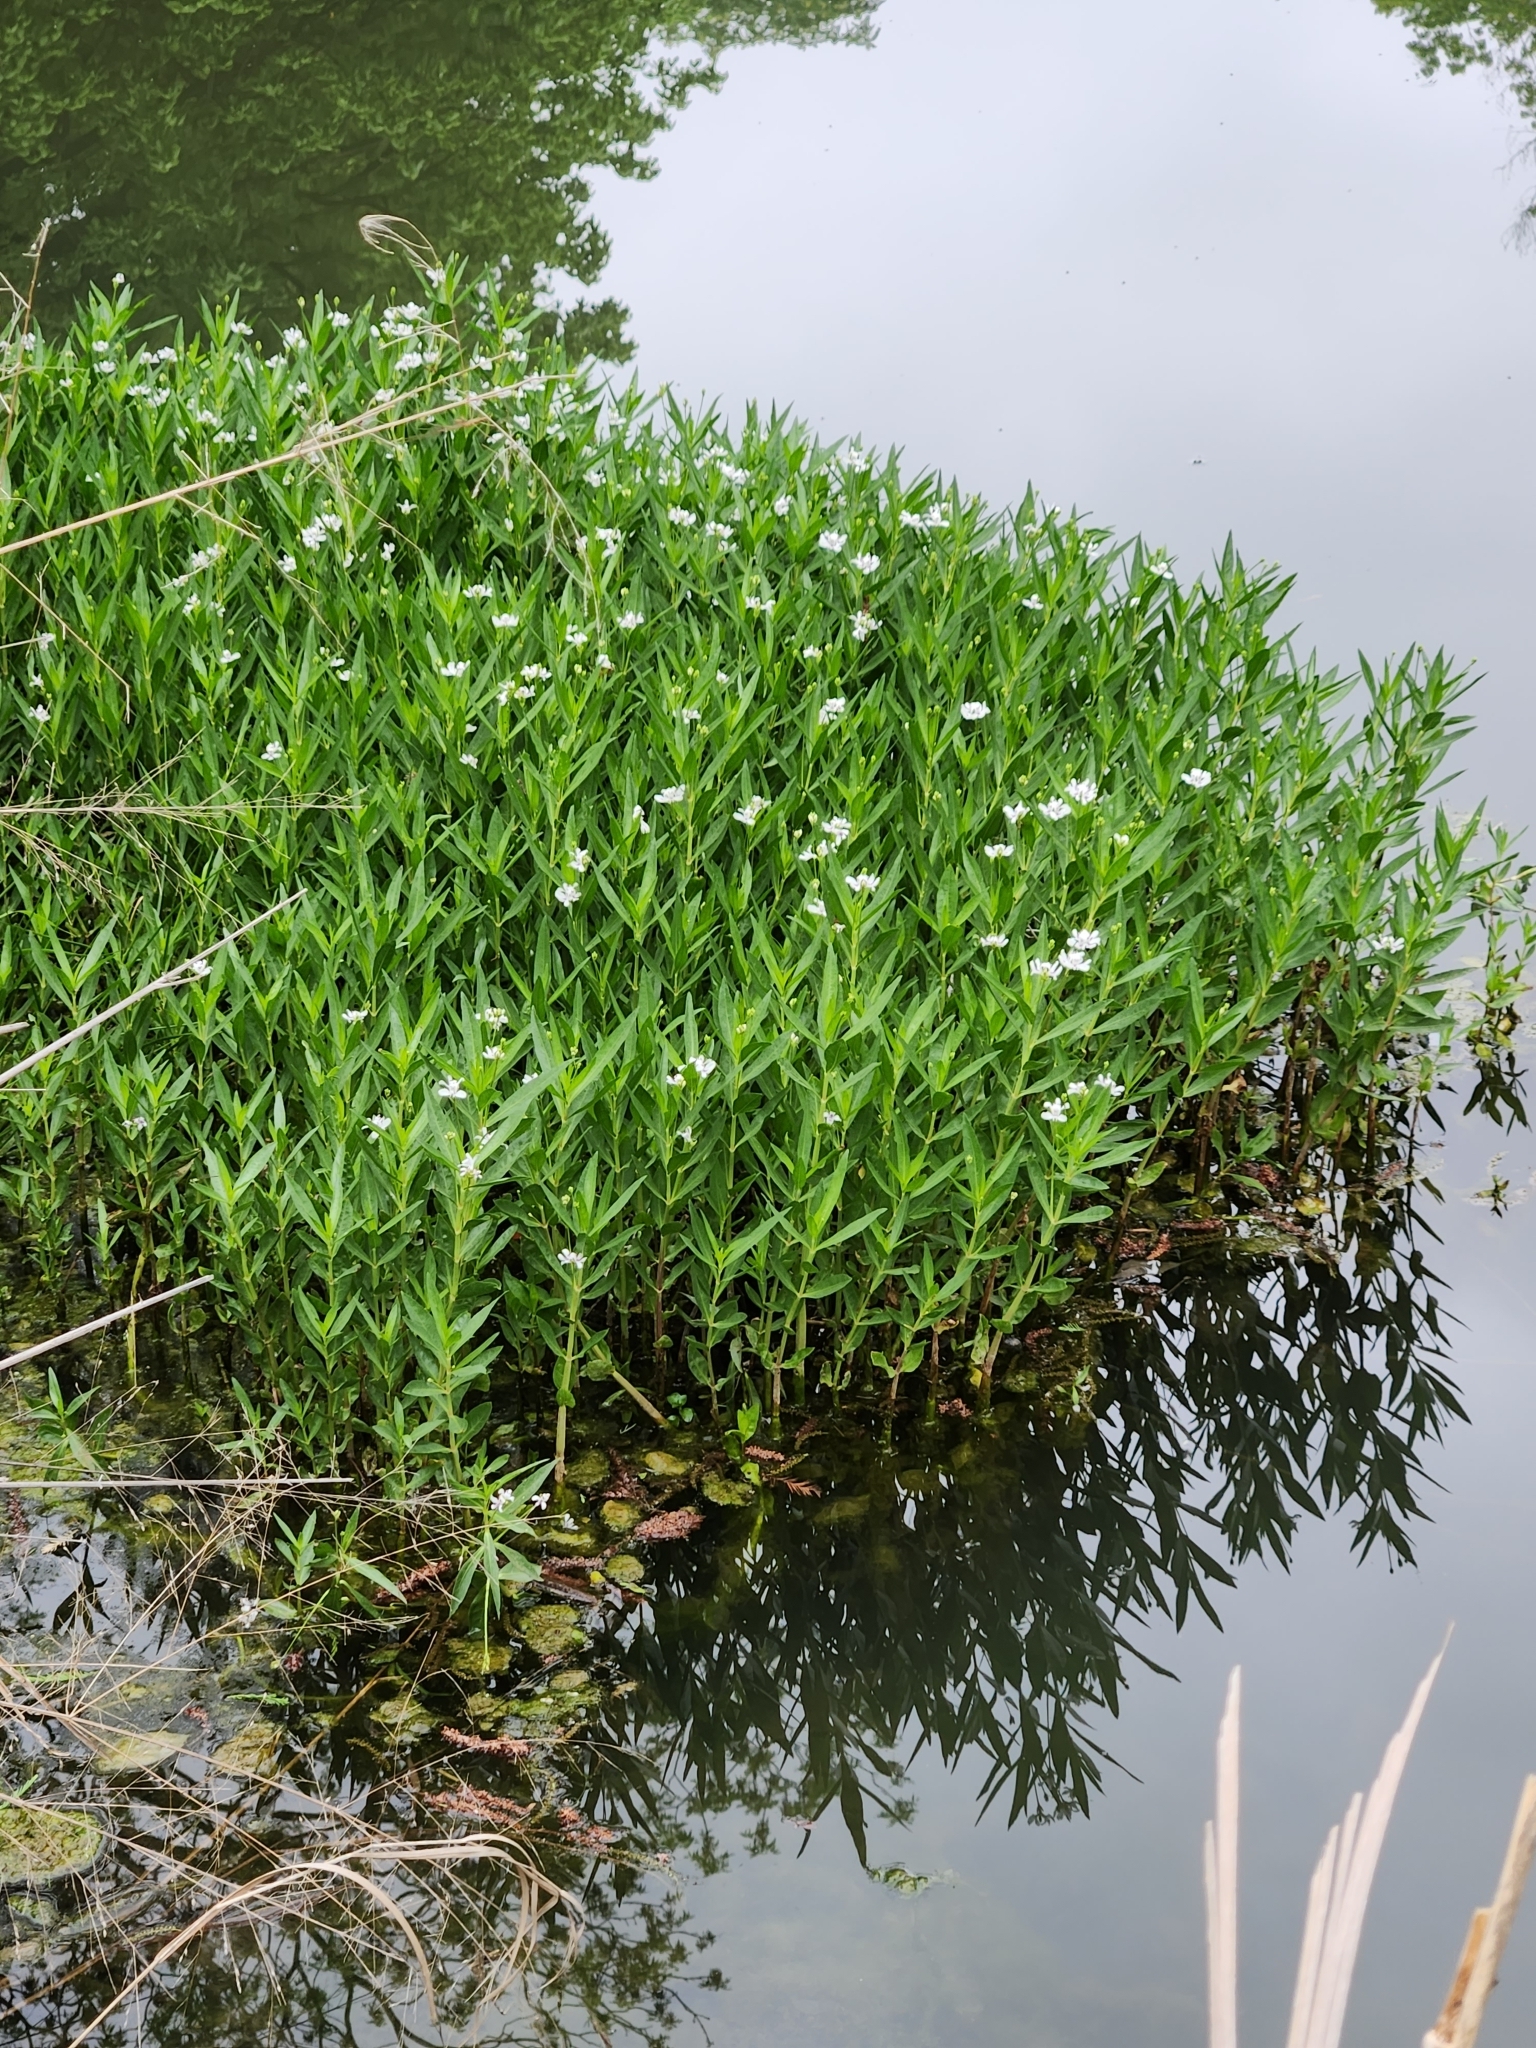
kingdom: Plantae
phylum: Tracheophyta
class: Magnoliopsida
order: Lamiales
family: Acanthaceae
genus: Dianthera
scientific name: Dianthera americana
